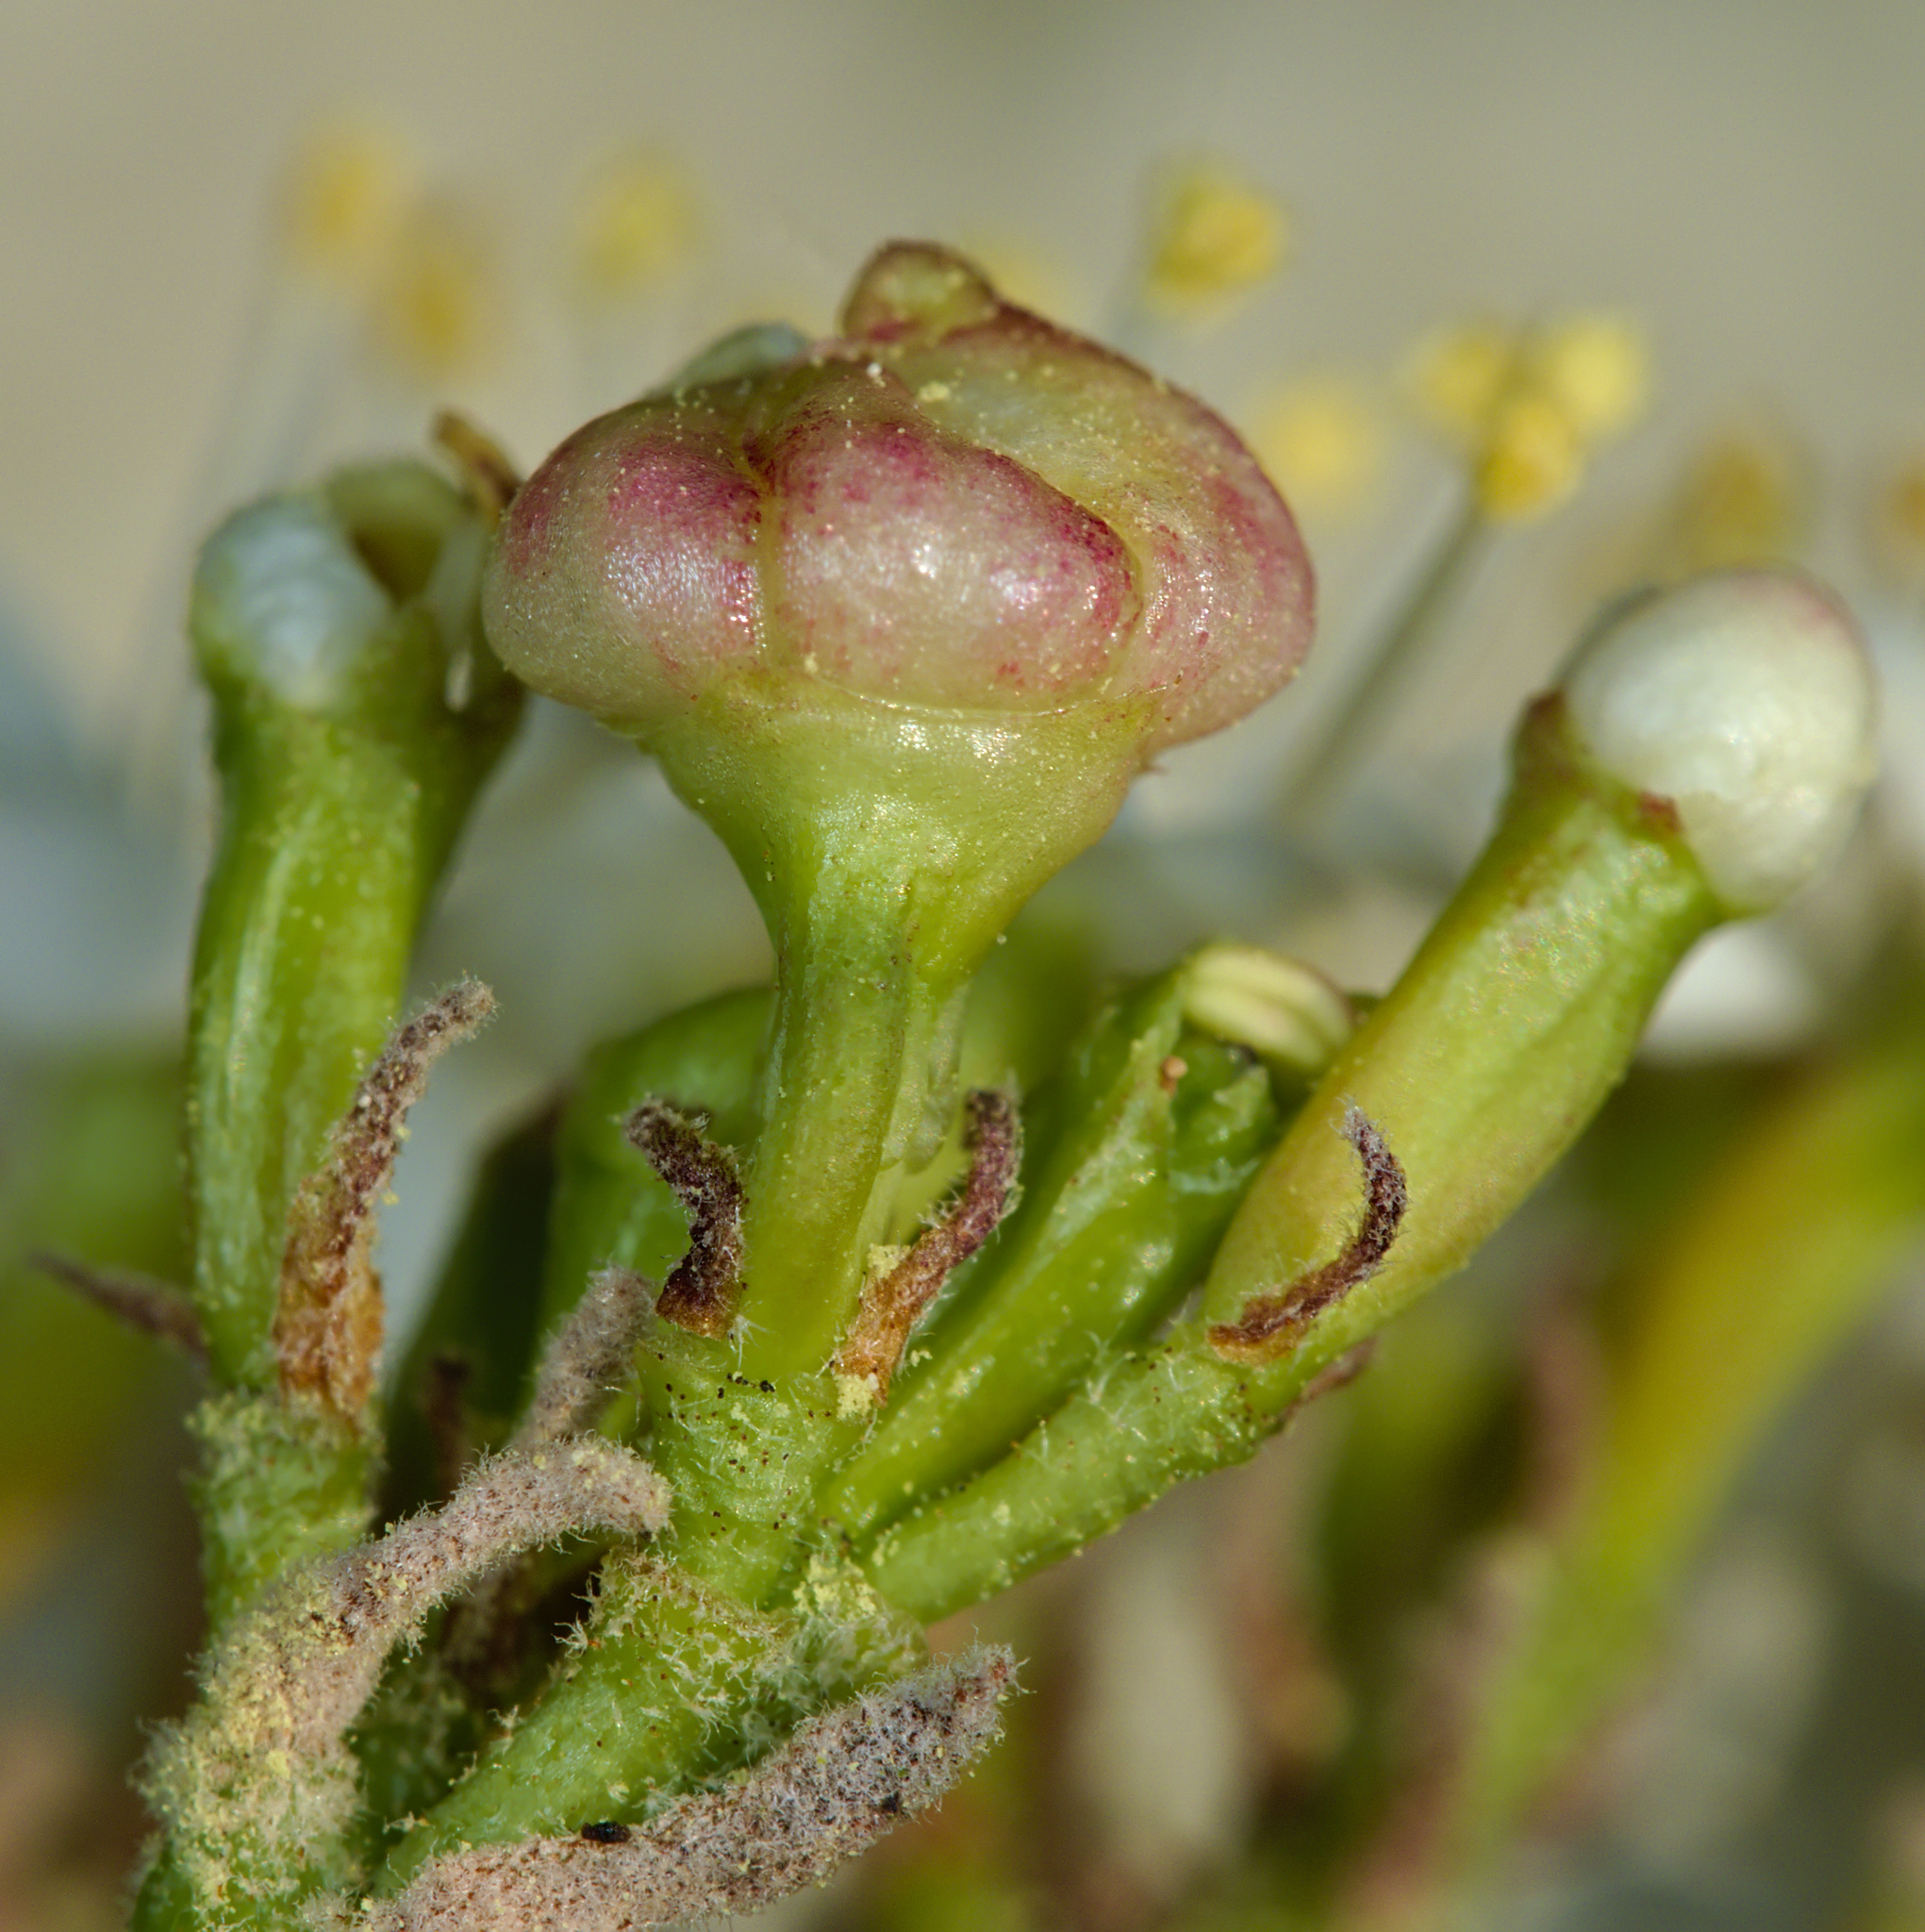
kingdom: Animalia
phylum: Arthropoda
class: Insecta
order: Diptera
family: Cecidomyiidae
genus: Contarinia
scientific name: Contarinia viburnorum
